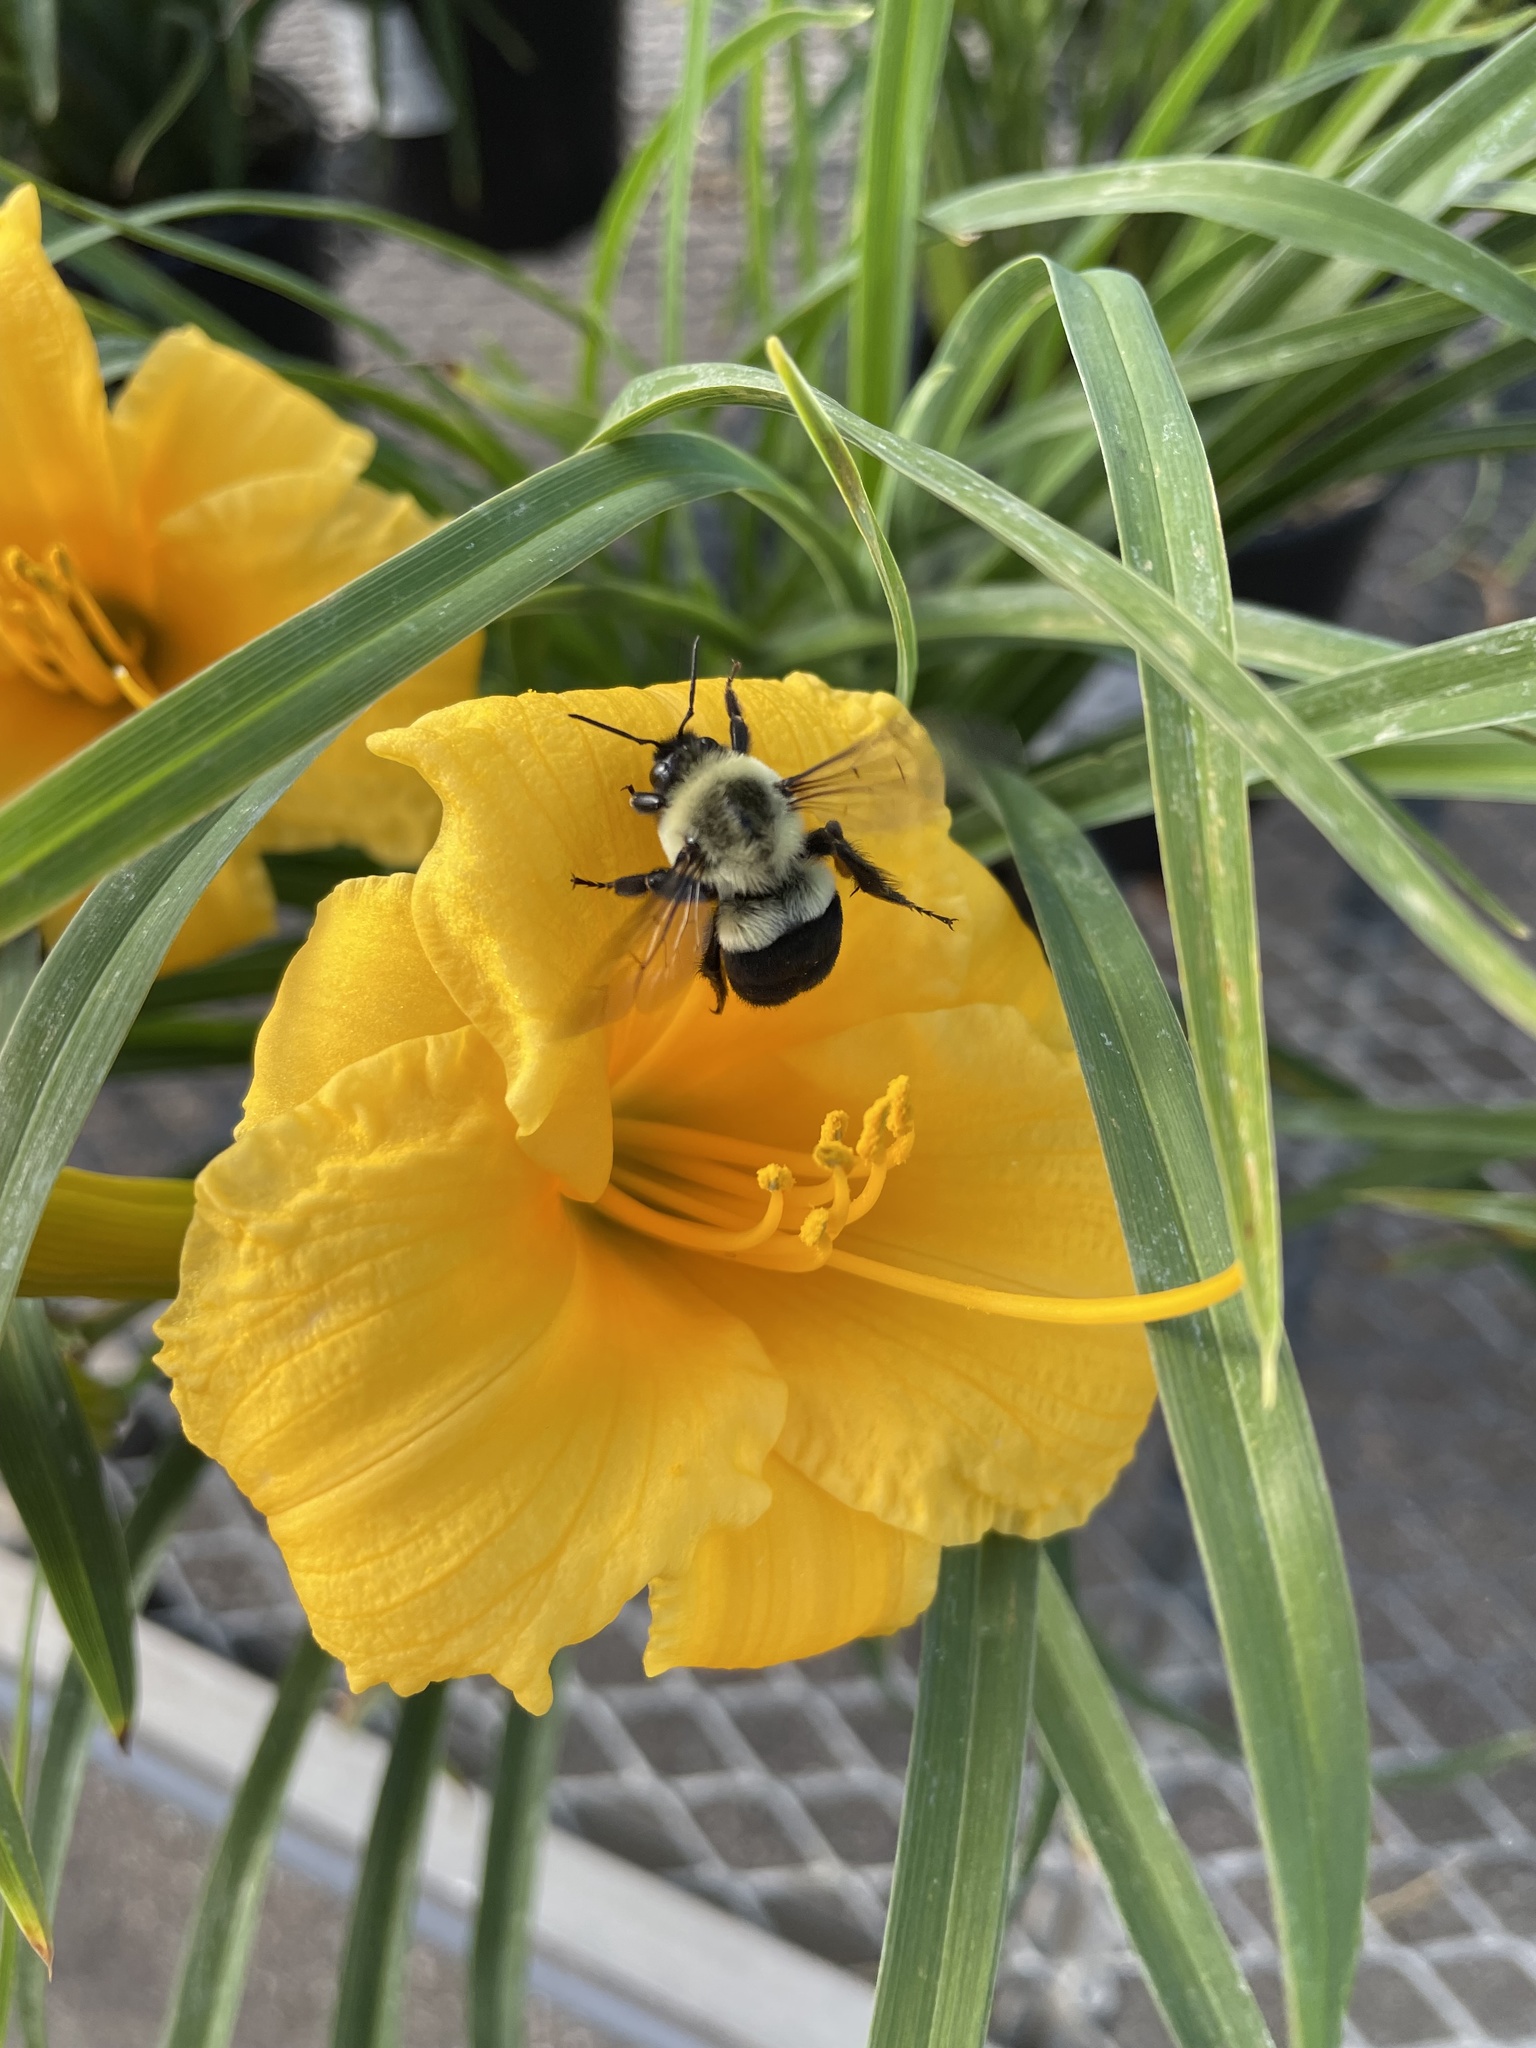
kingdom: Animalia
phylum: Arthropoda
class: Insecta
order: Hymenoptera
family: Apidae
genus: Bombus
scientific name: Bombus impatiens
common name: Common eastern bumble bee
